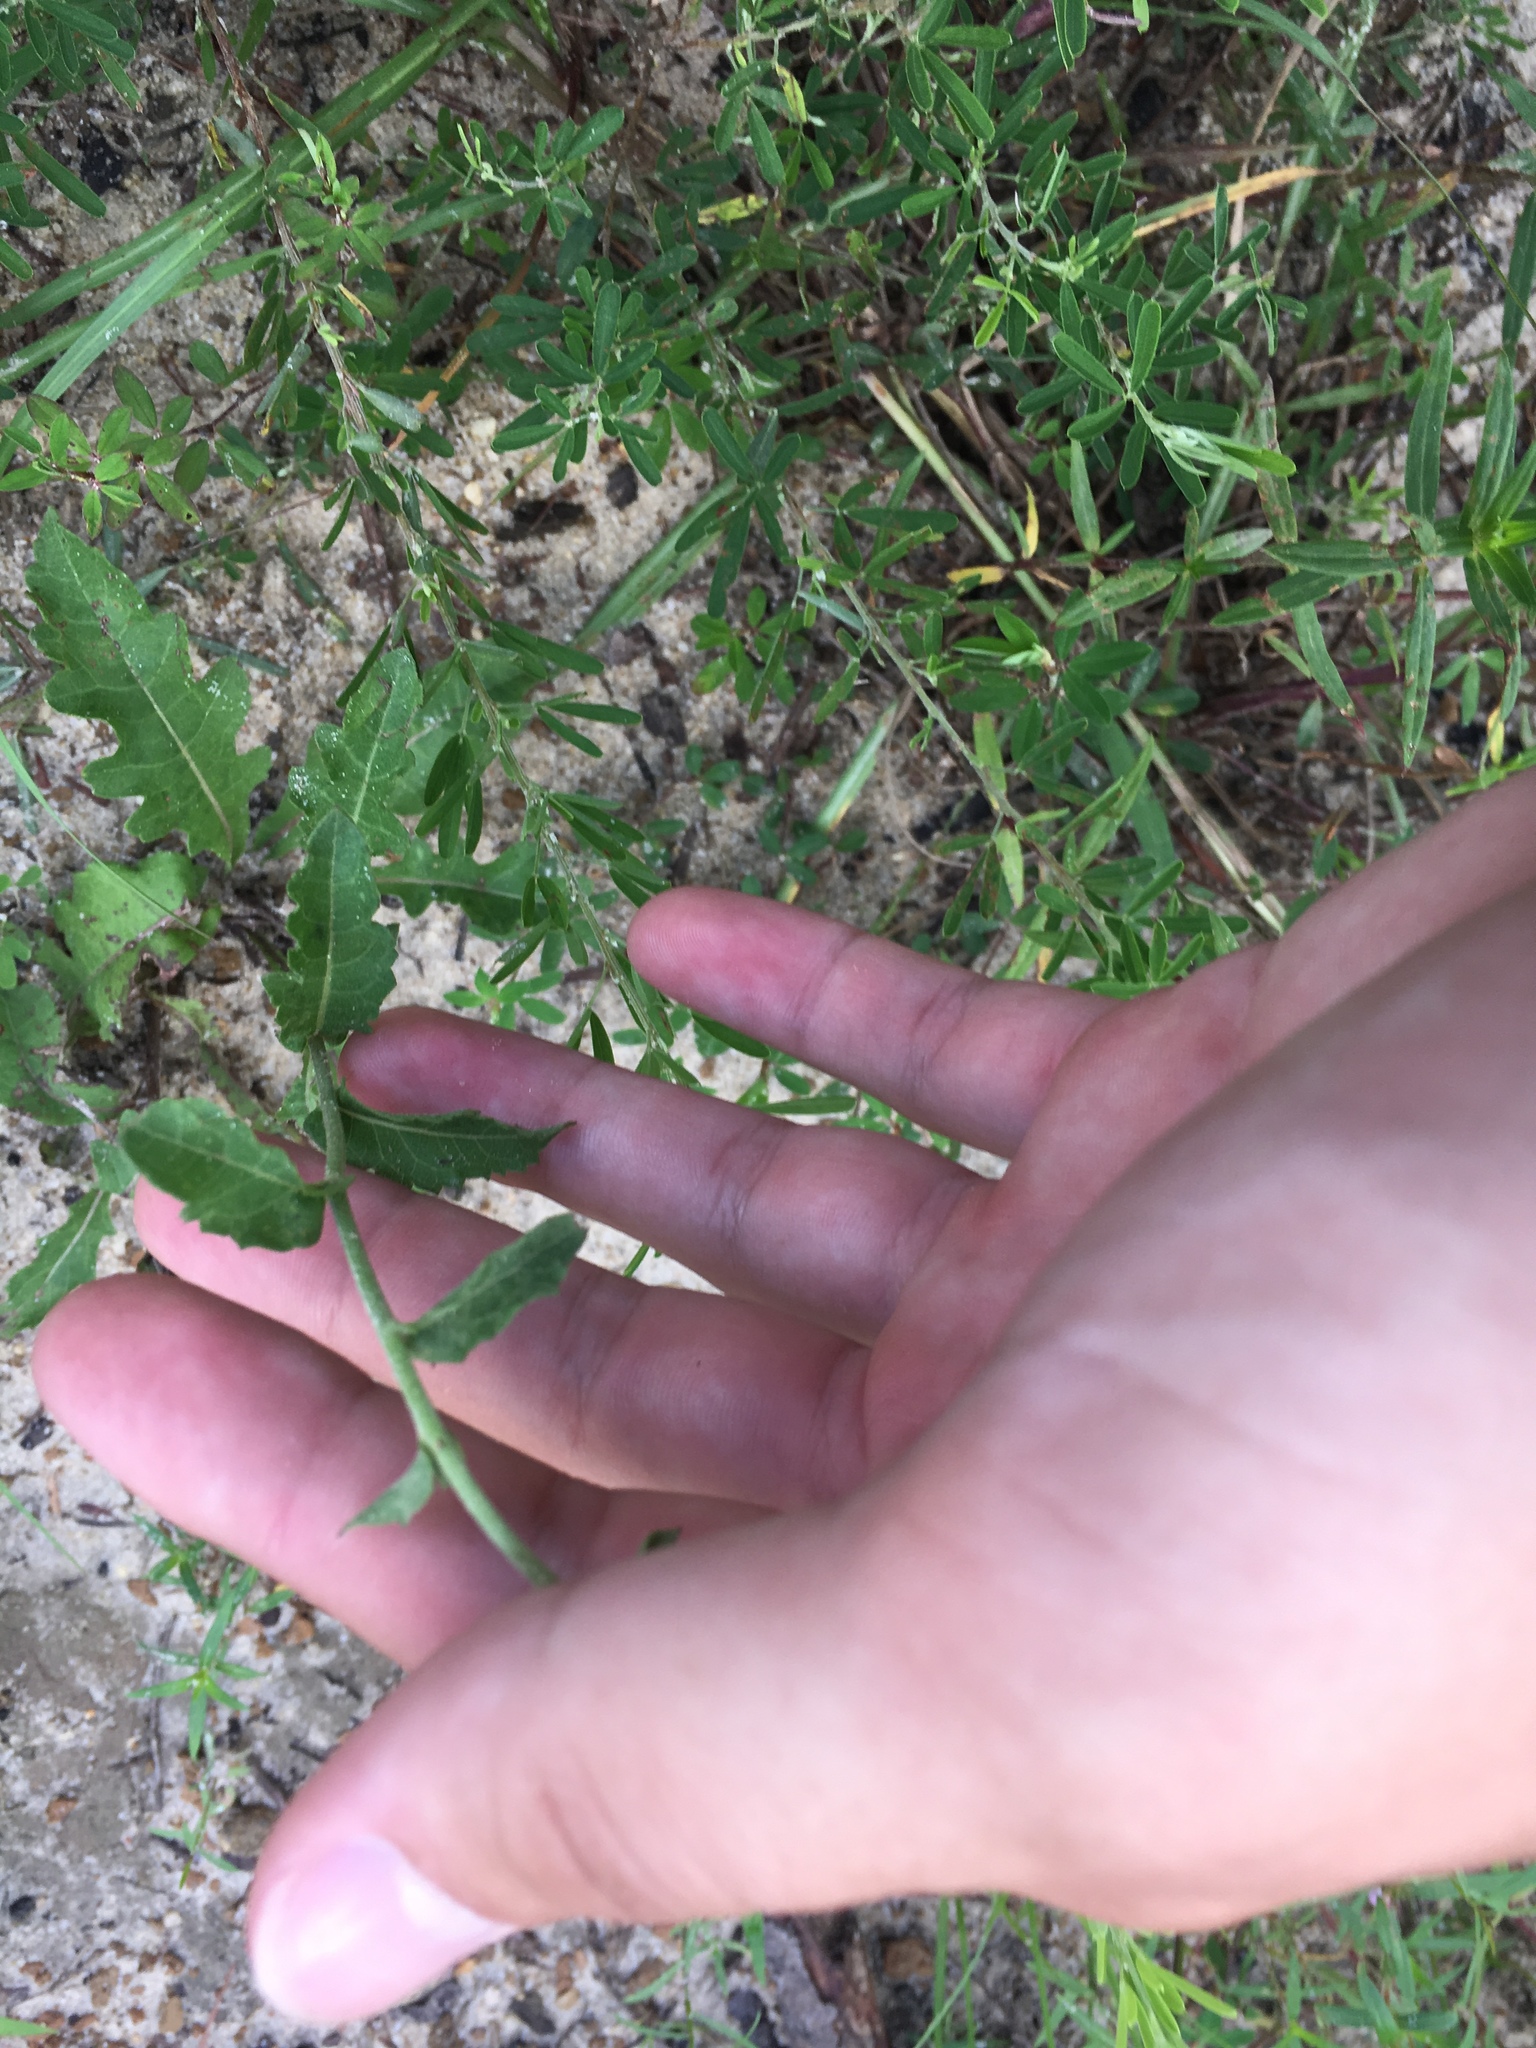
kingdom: Plantae
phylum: Tracheophyta
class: Magnoliopsida
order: Asterales
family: Asteraceae
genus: Parthenium
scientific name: Parthenium integrifolium
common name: American feverfew
